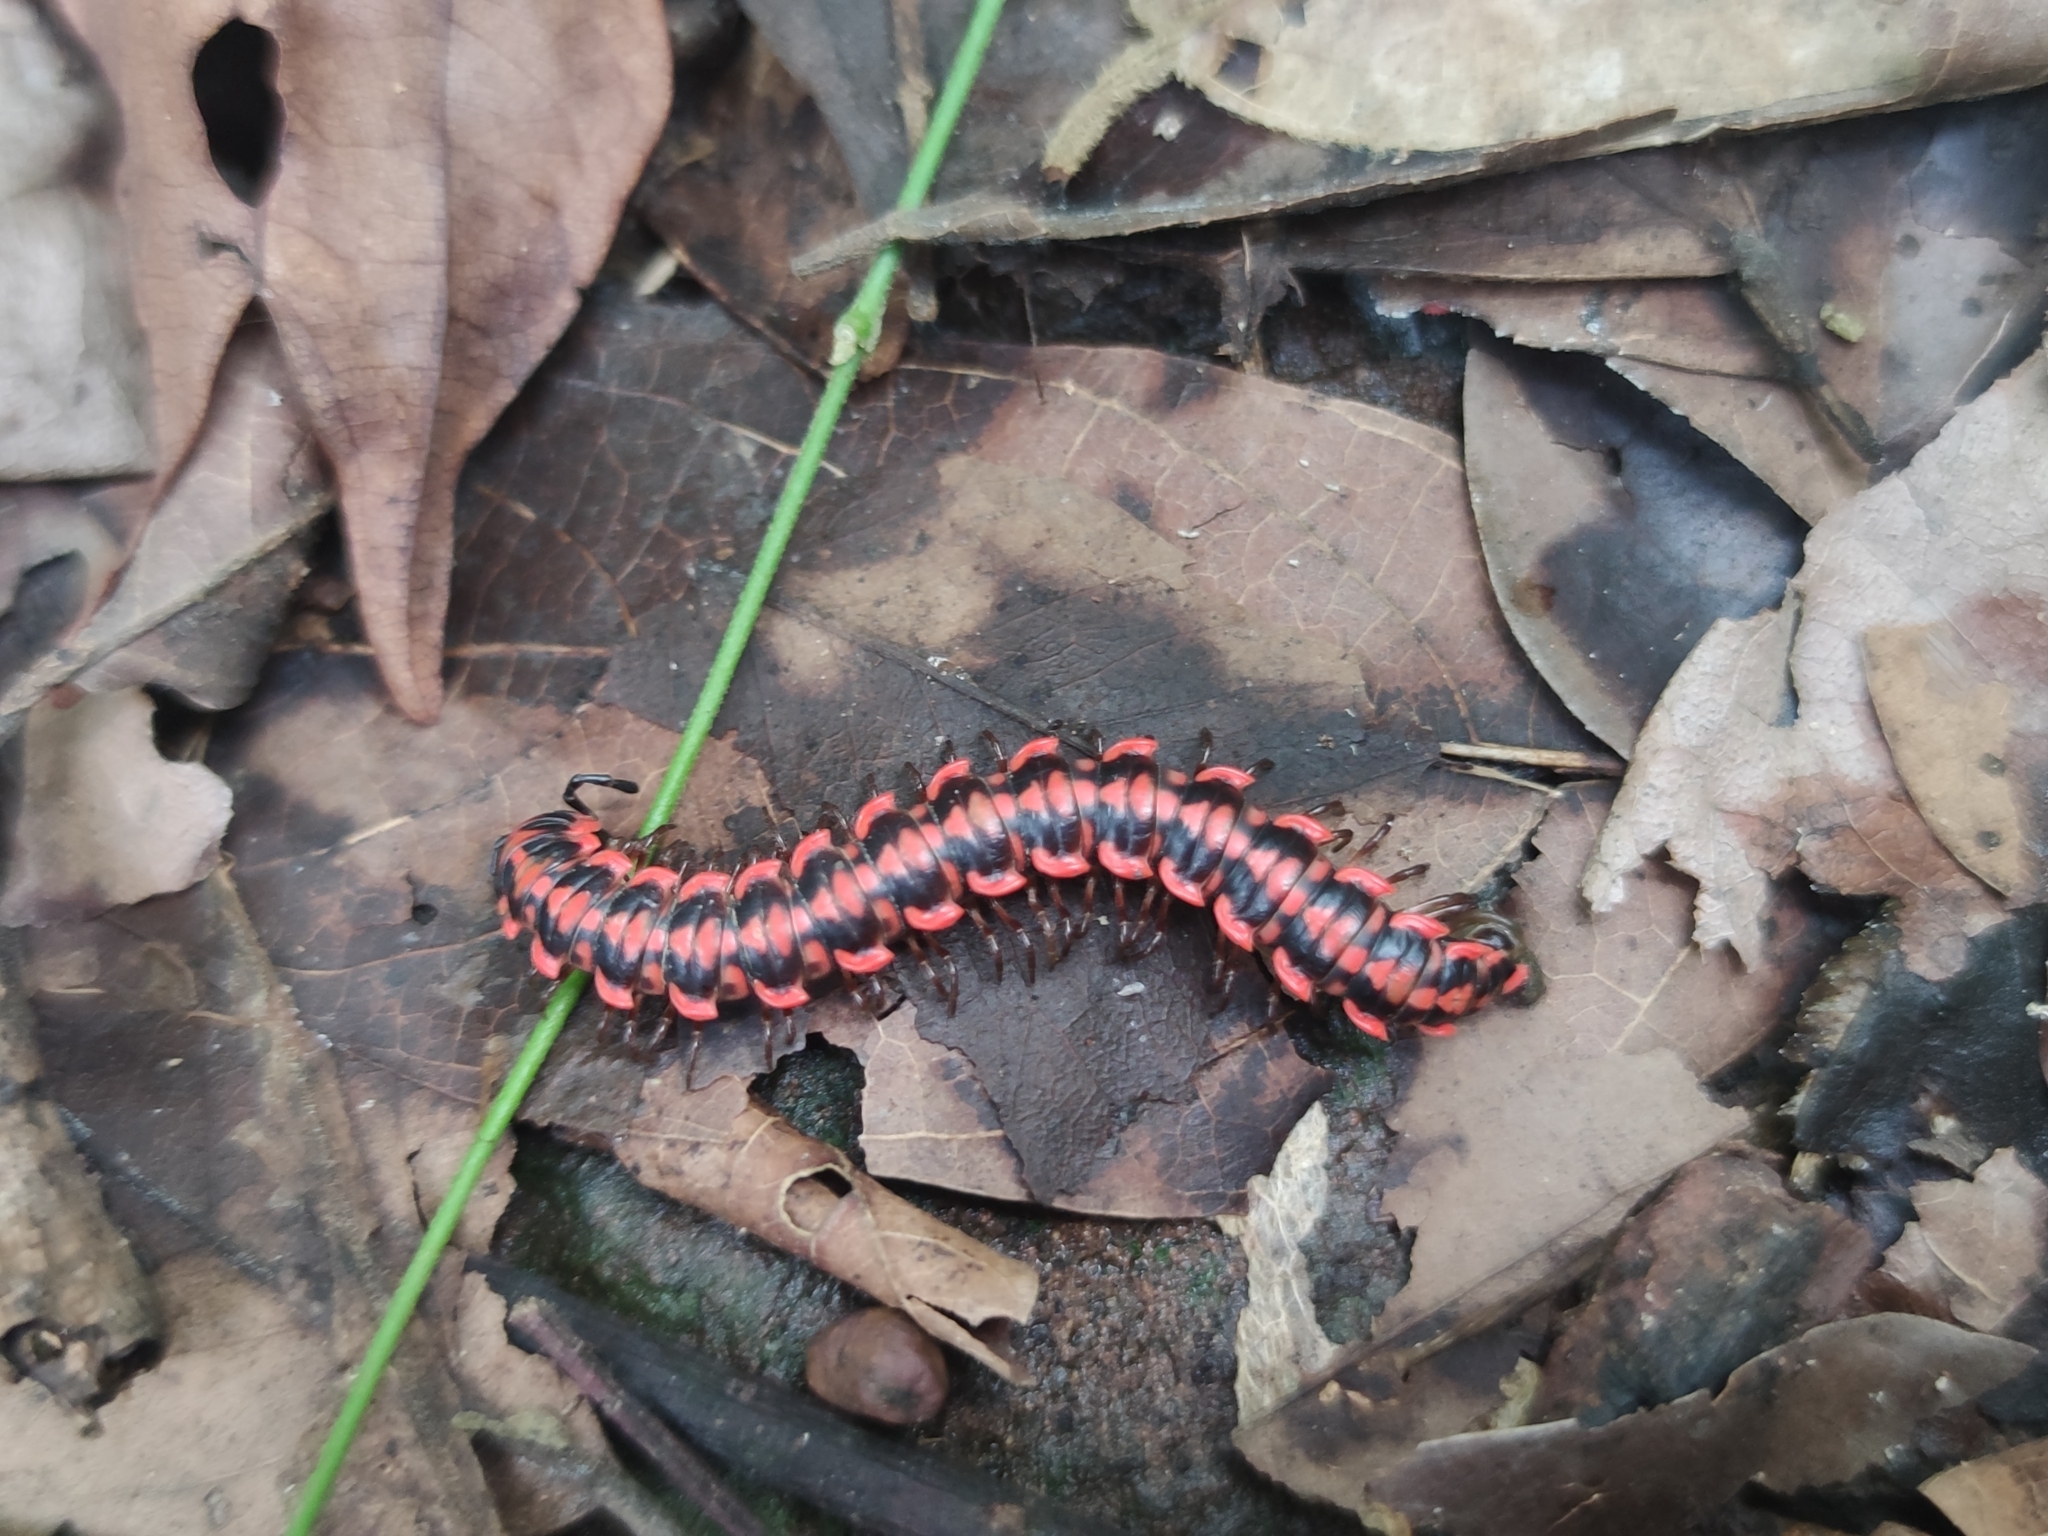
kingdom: Animalia
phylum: Arthropoda
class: Diplopoda
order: Polydesmida
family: Paradoxosomatidae
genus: Antheromorpha
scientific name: Antheromorpha uncinata
